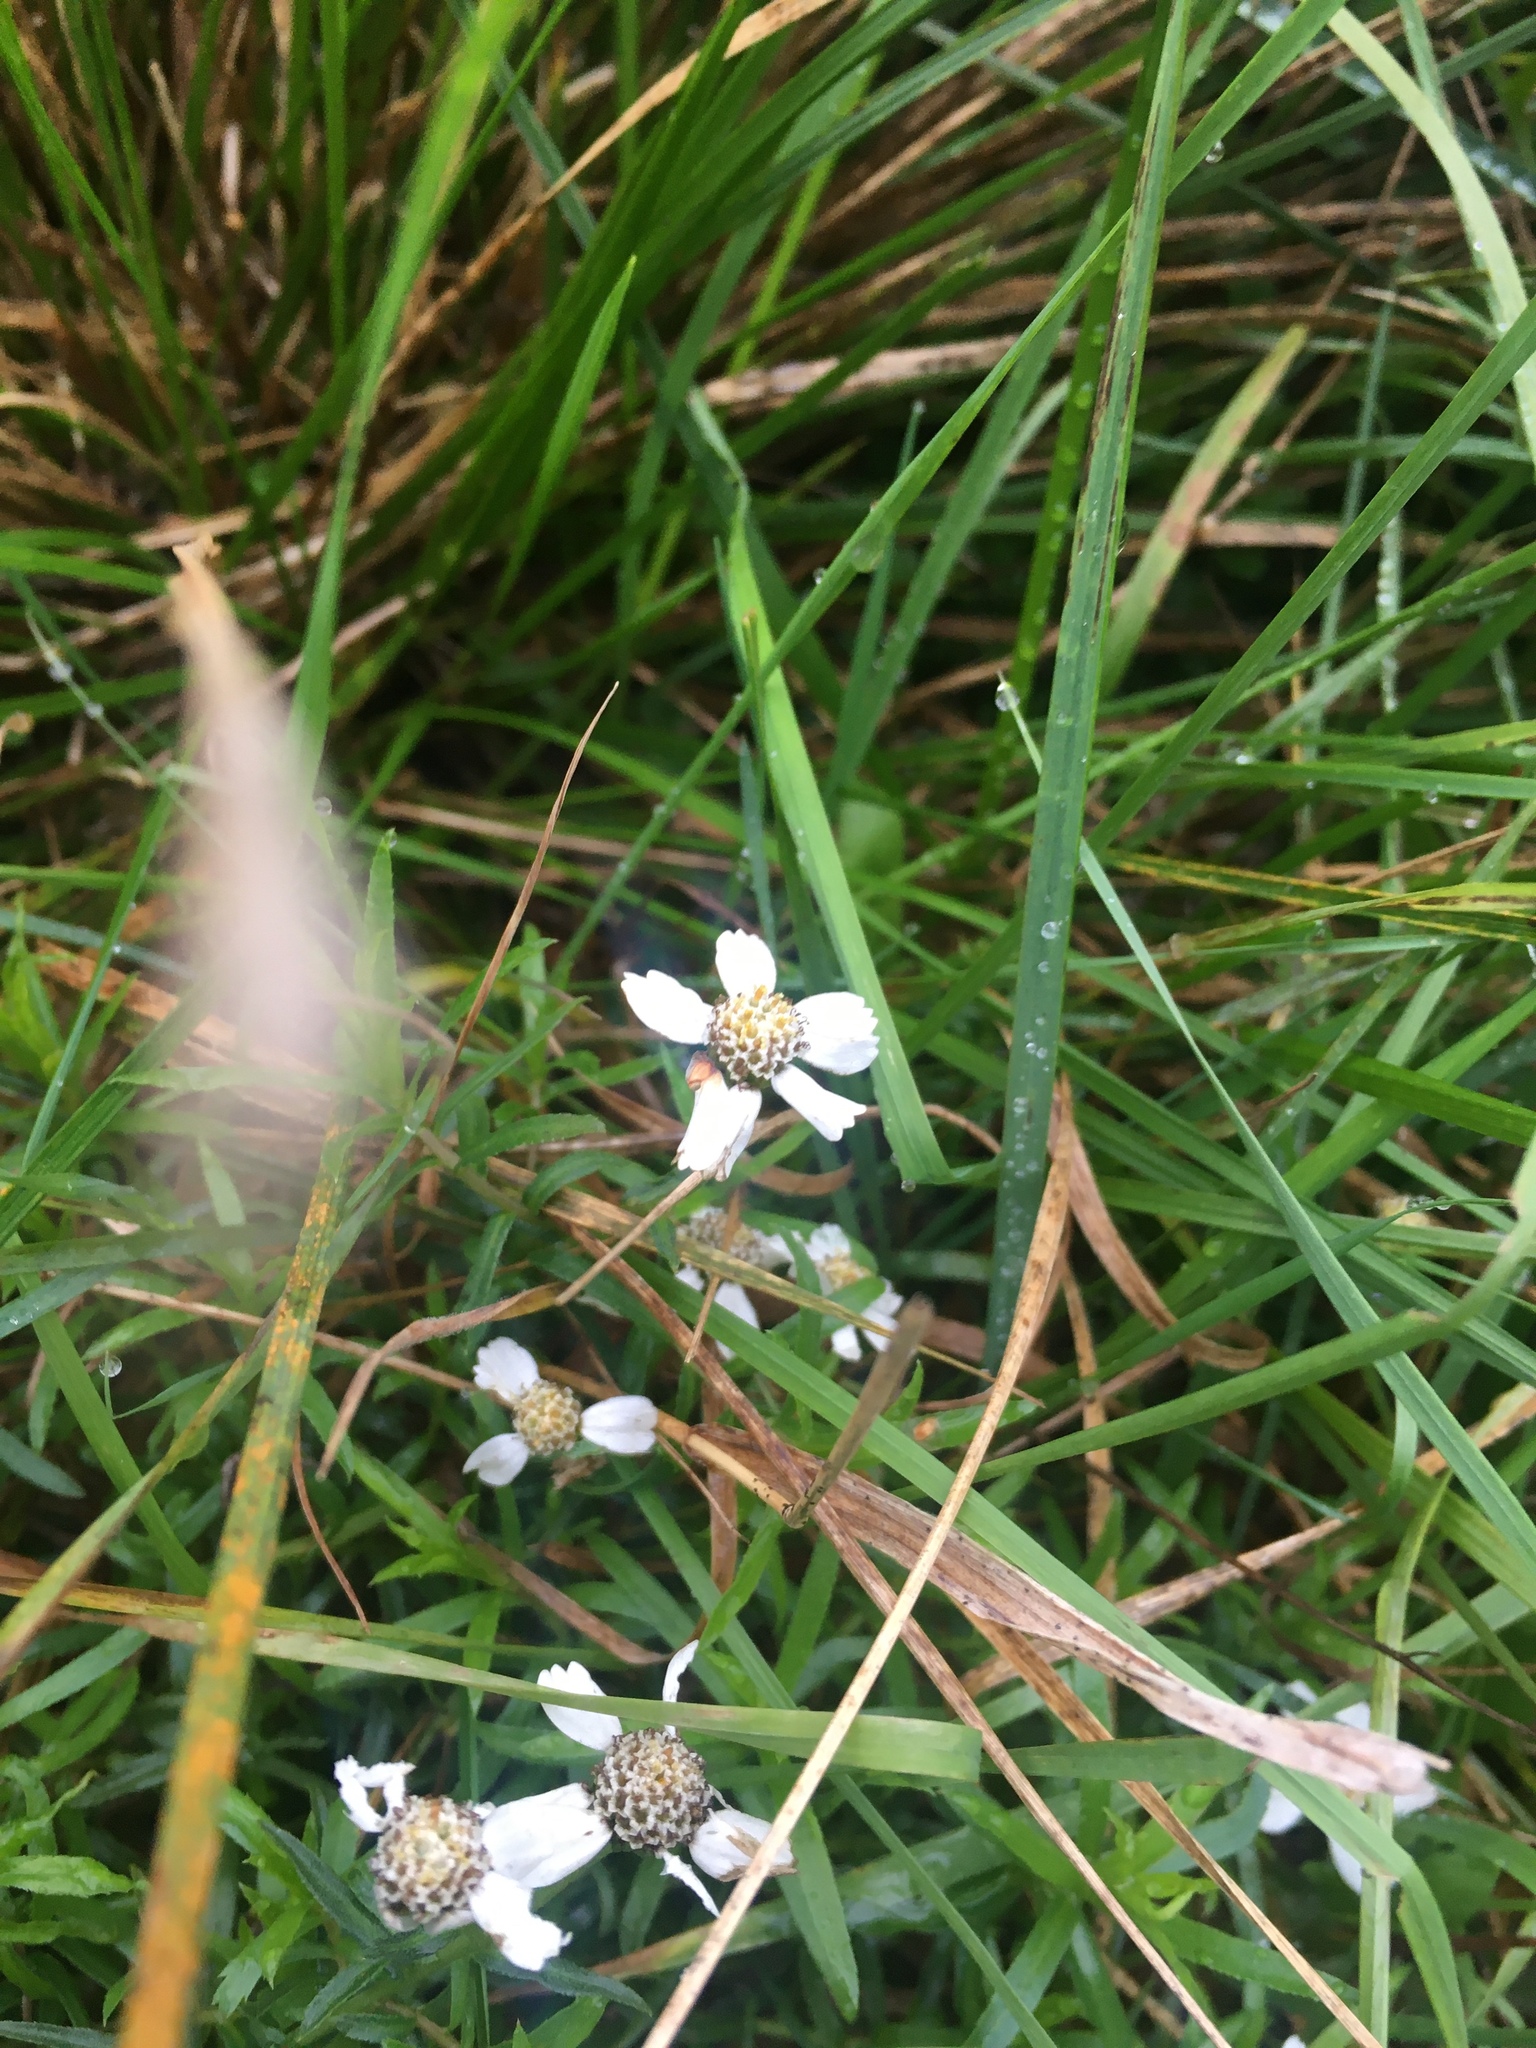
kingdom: Plantae
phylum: Tracheophyta
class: Magnoliopsida
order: Asterales
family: Asteraceae
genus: Achillea
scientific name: Achillea ptarmica
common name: Sneezeweed
